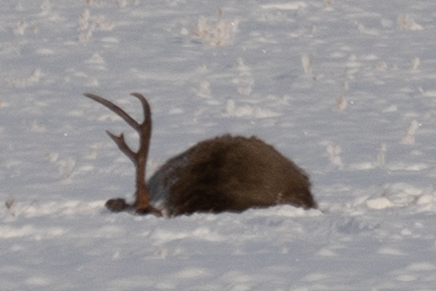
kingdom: Animalia
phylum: Chordata
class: Mammalia
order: Artiodactyla
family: Cervidae
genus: Odocoileus
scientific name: Odocoileus hemionus
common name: Mule deer
